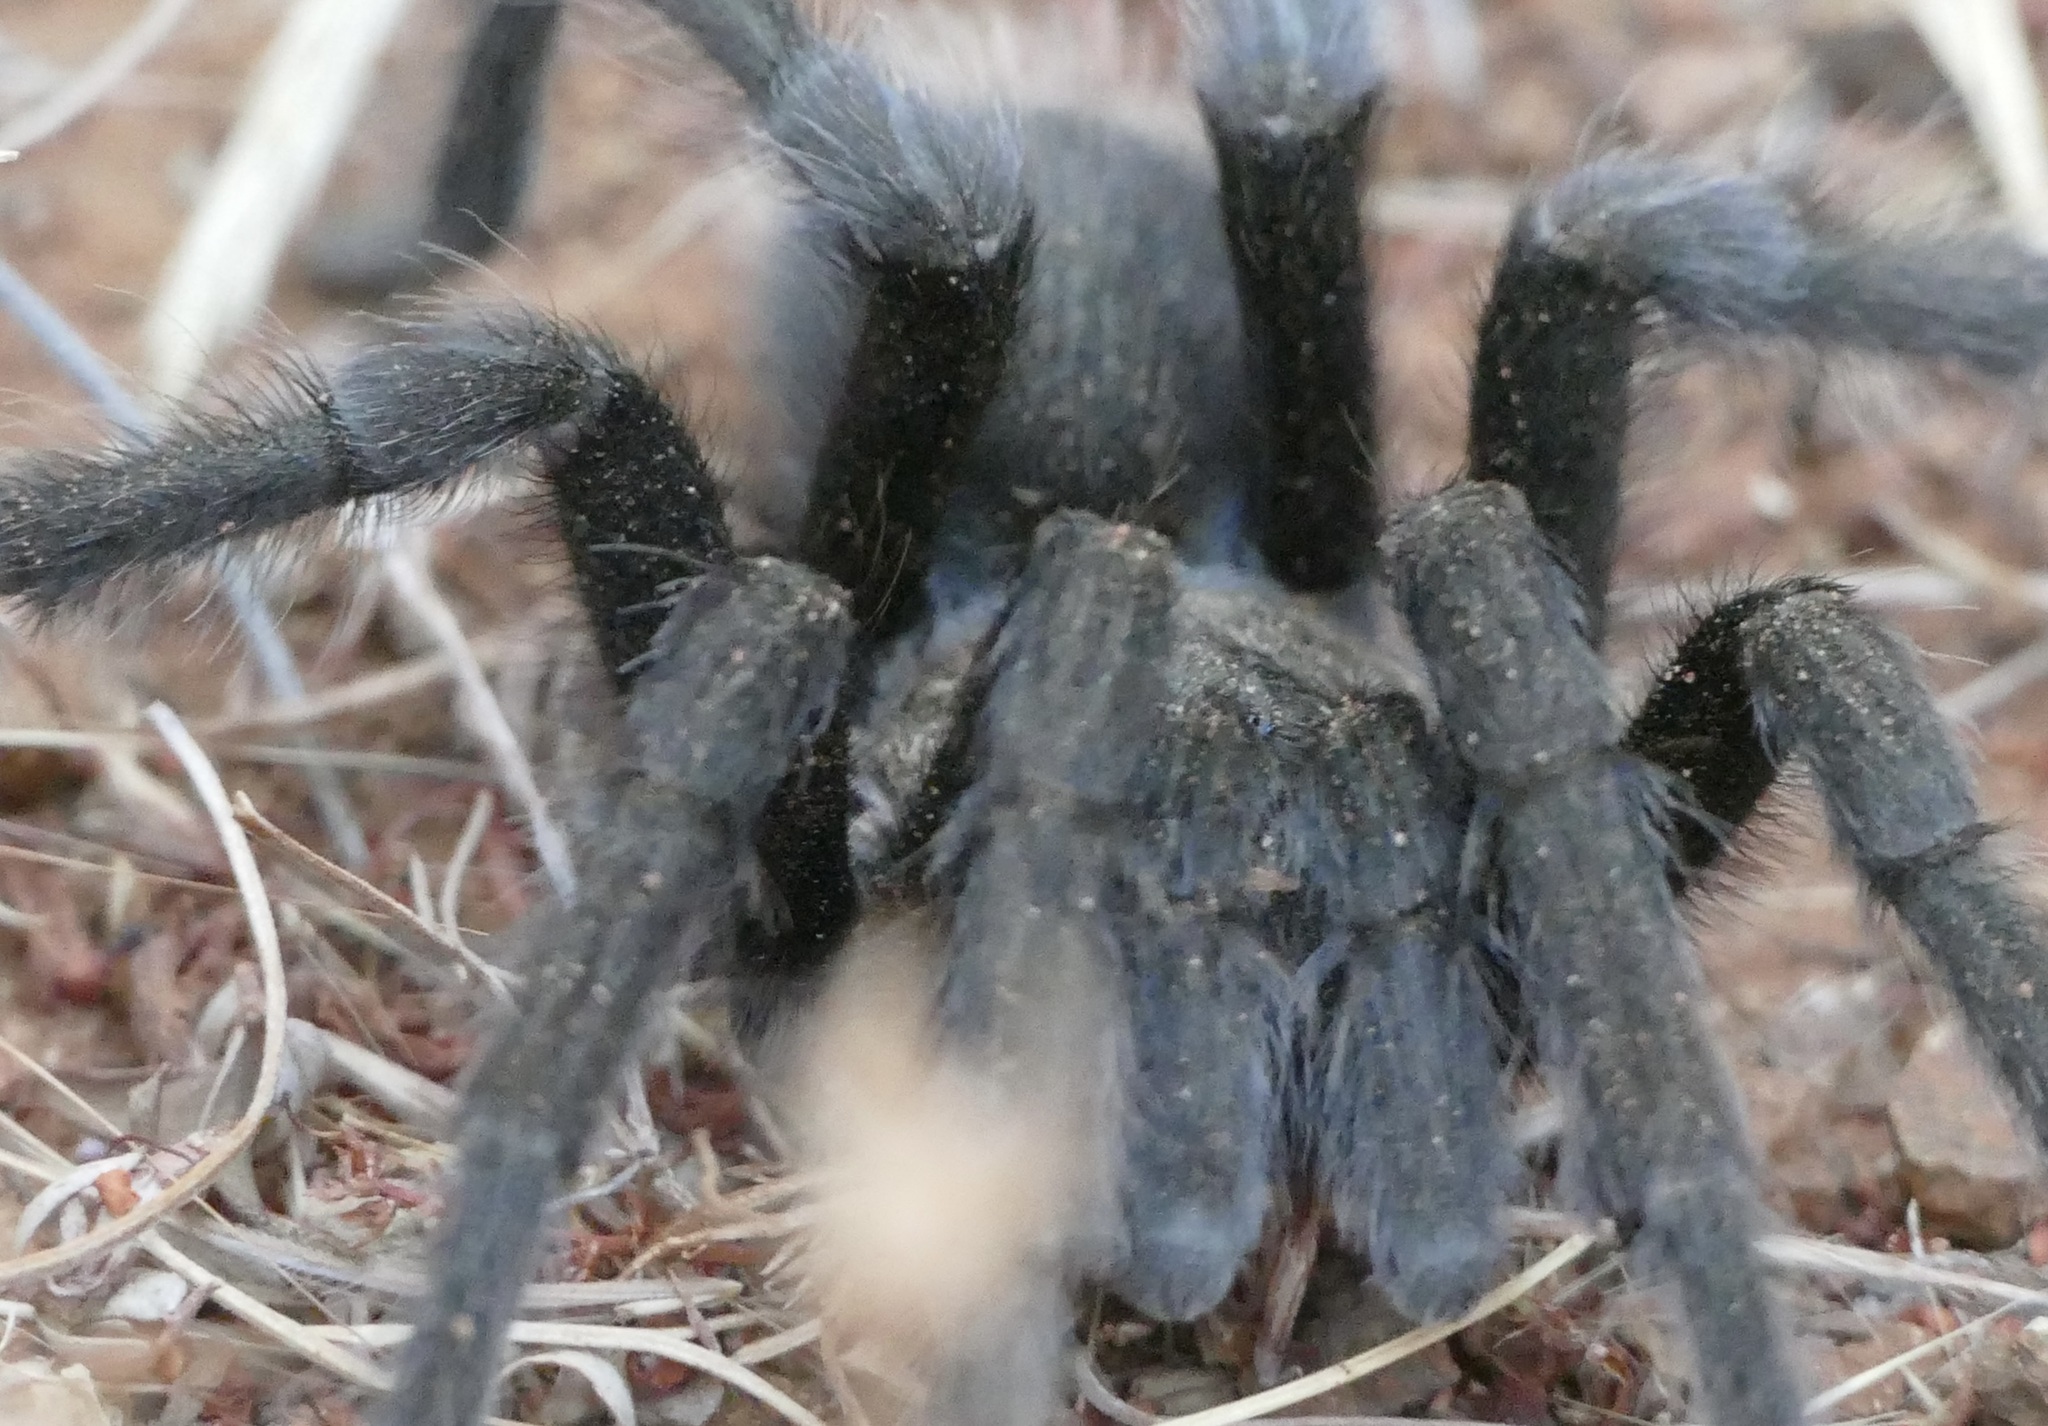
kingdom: Animalia
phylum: Arthropoda
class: Arachnida
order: Araneae
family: Theraphosidae
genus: Aphonopelma
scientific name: Aphonopelma iodius
